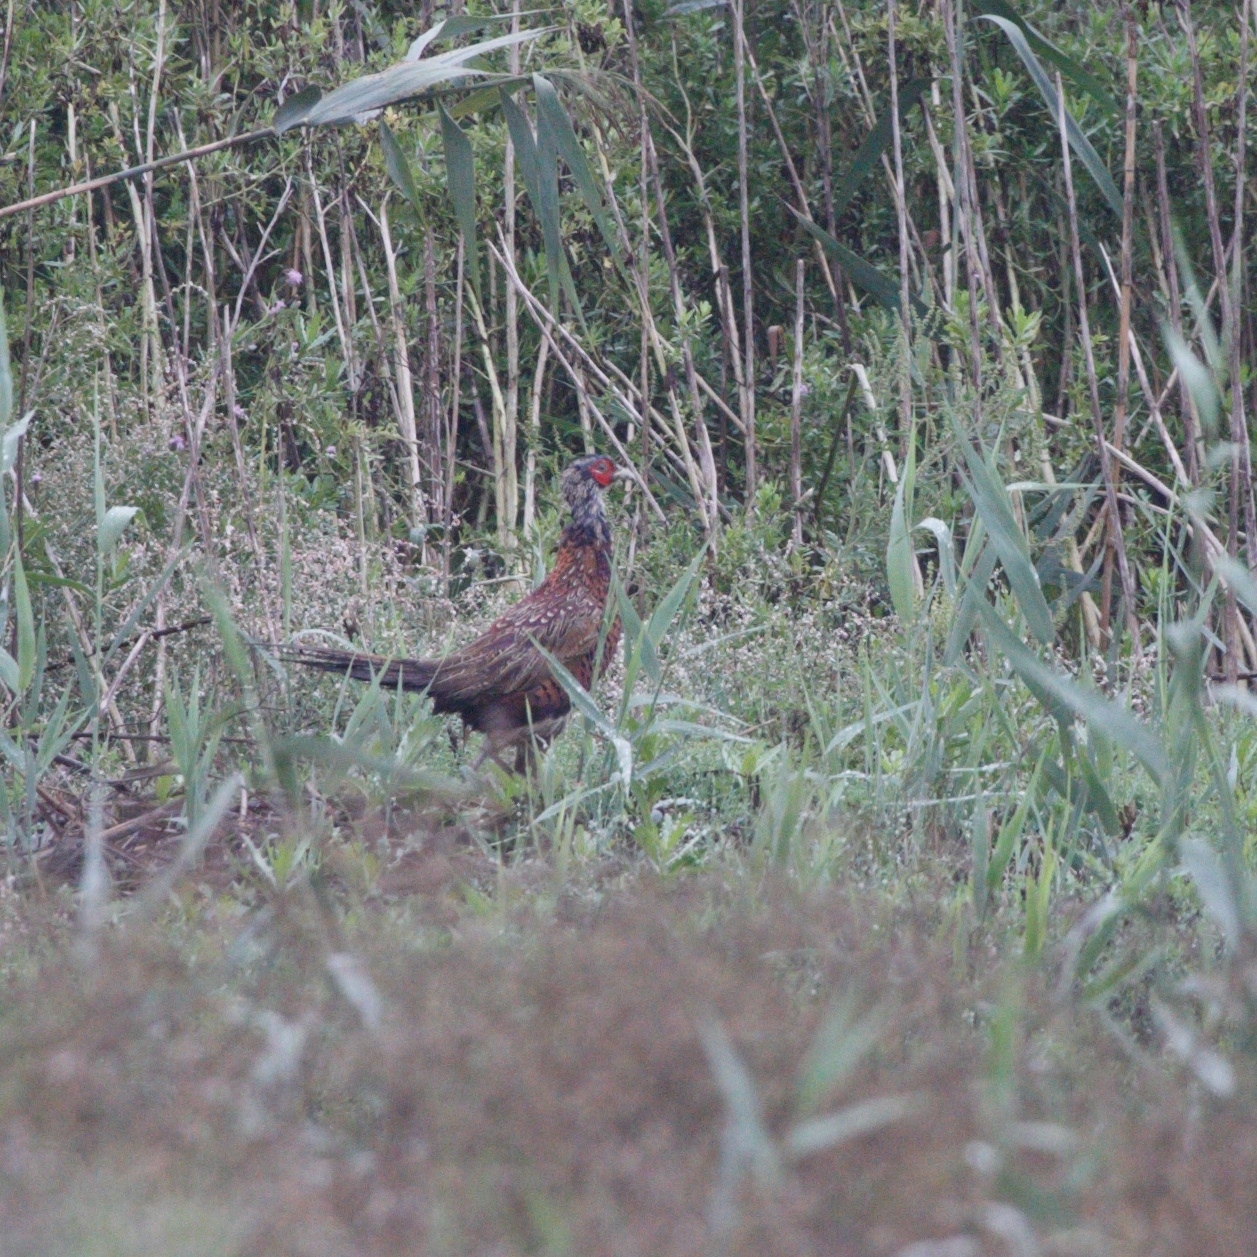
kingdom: Animalia
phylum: Chordata
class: Aves
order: Galliformes
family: Phasianidae
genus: Phasianus
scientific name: Phasianus colchicus
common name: Common pheasant
